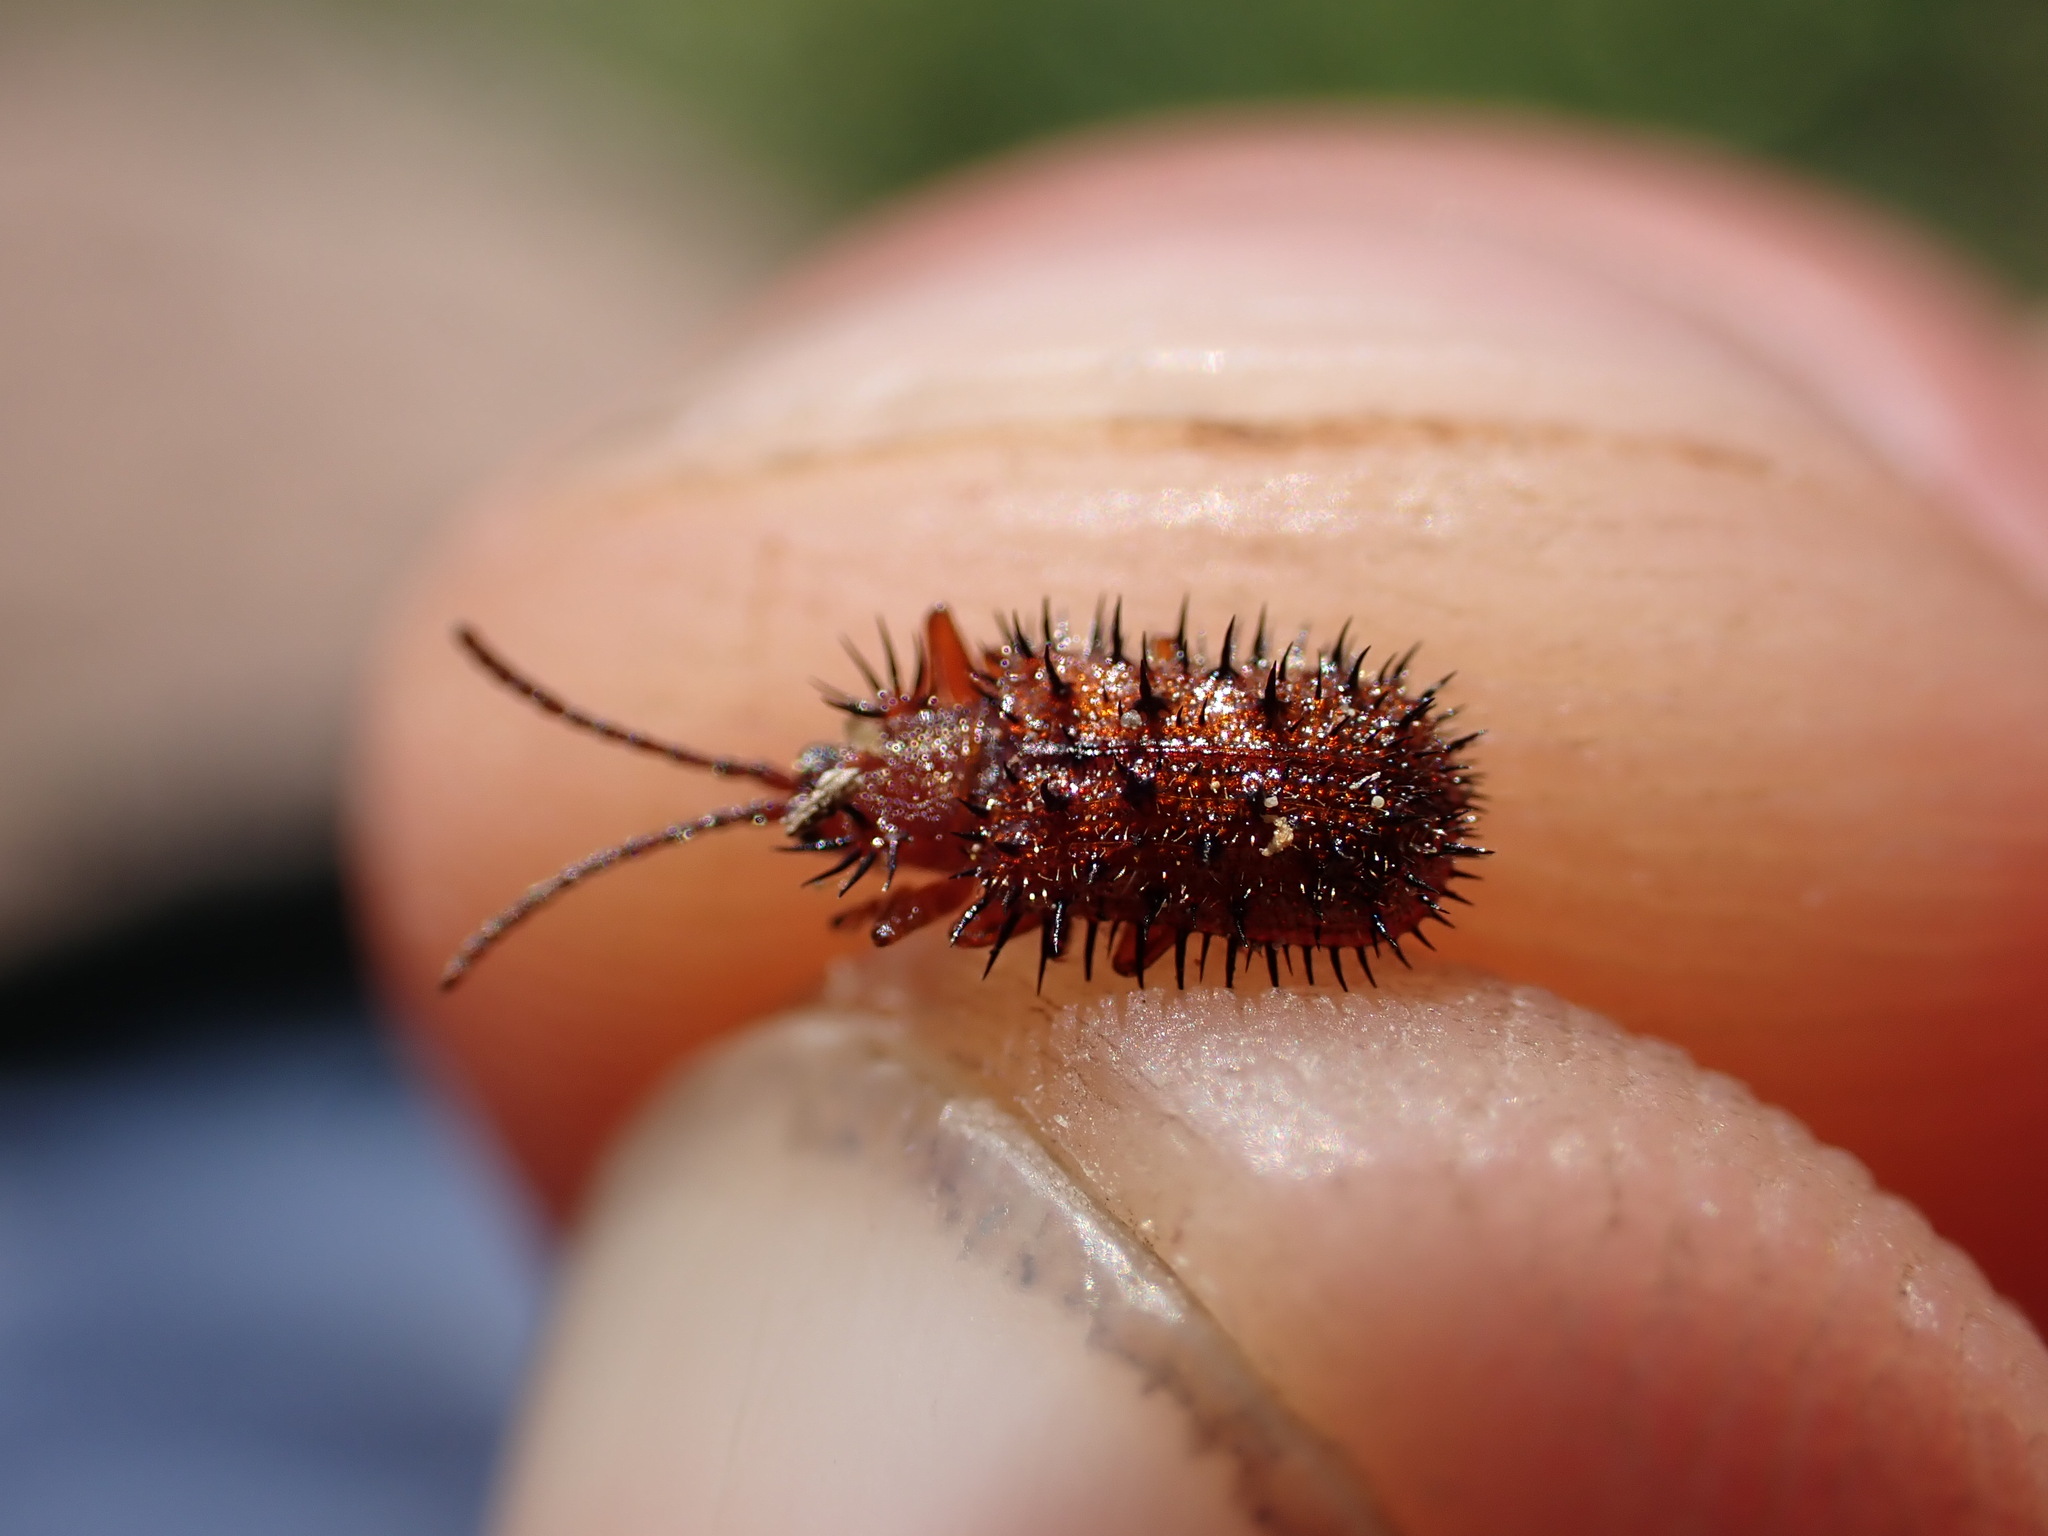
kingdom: Animalia
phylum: Arthropoda
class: Insecta
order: Coleoptera
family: Chrysomelidae
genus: Dicladispa
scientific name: Dicladispa testacea
